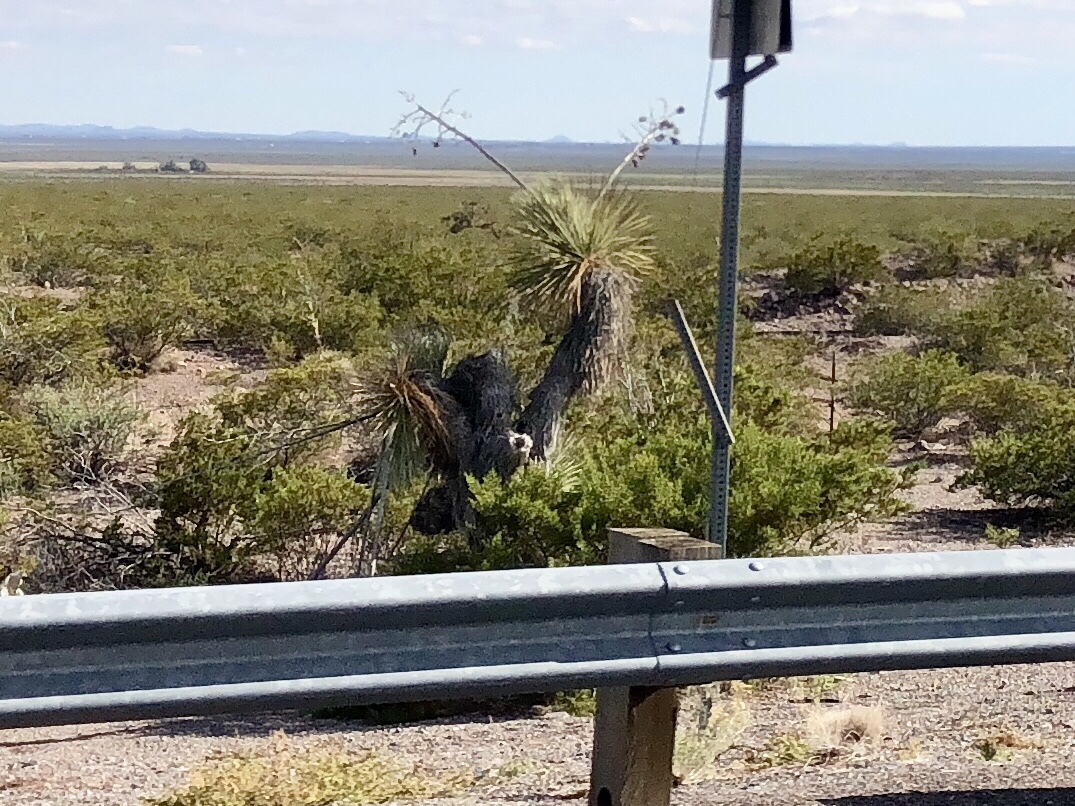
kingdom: Plantae
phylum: Tracheophyta
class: Liliopsida
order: Asparagales
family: Asparagaceae
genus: Yucca
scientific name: Yucca elata
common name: Palmella
